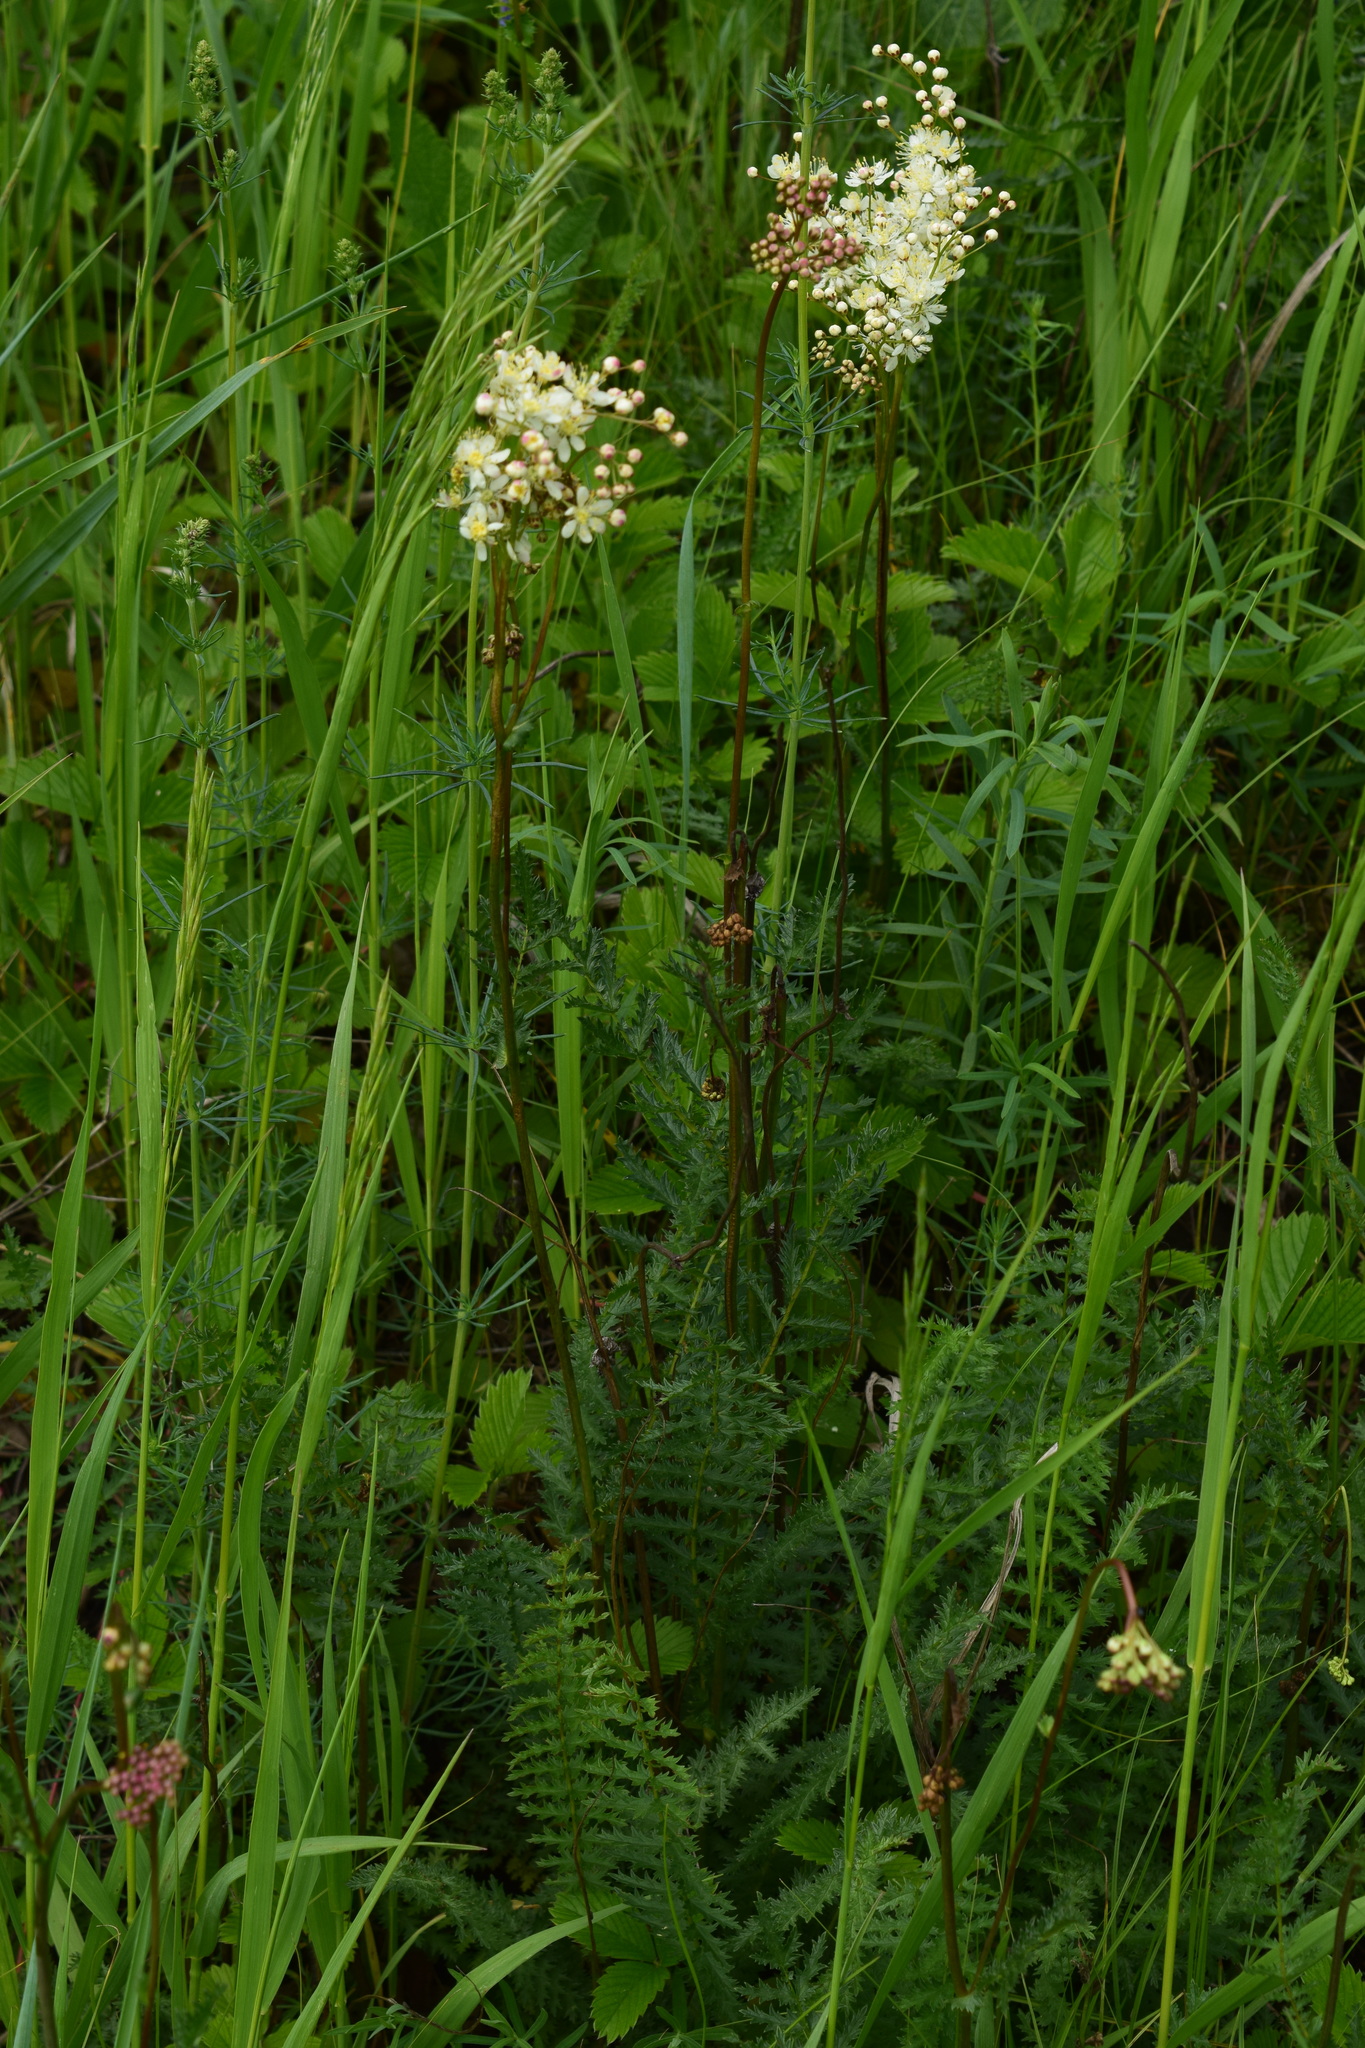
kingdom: Plantae
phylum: Tracheophyta
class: Magnoliopsida
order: Rosales
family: Rosaceae
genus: Filipendula
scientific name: Filipendula vulgaris
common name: Dropwort
